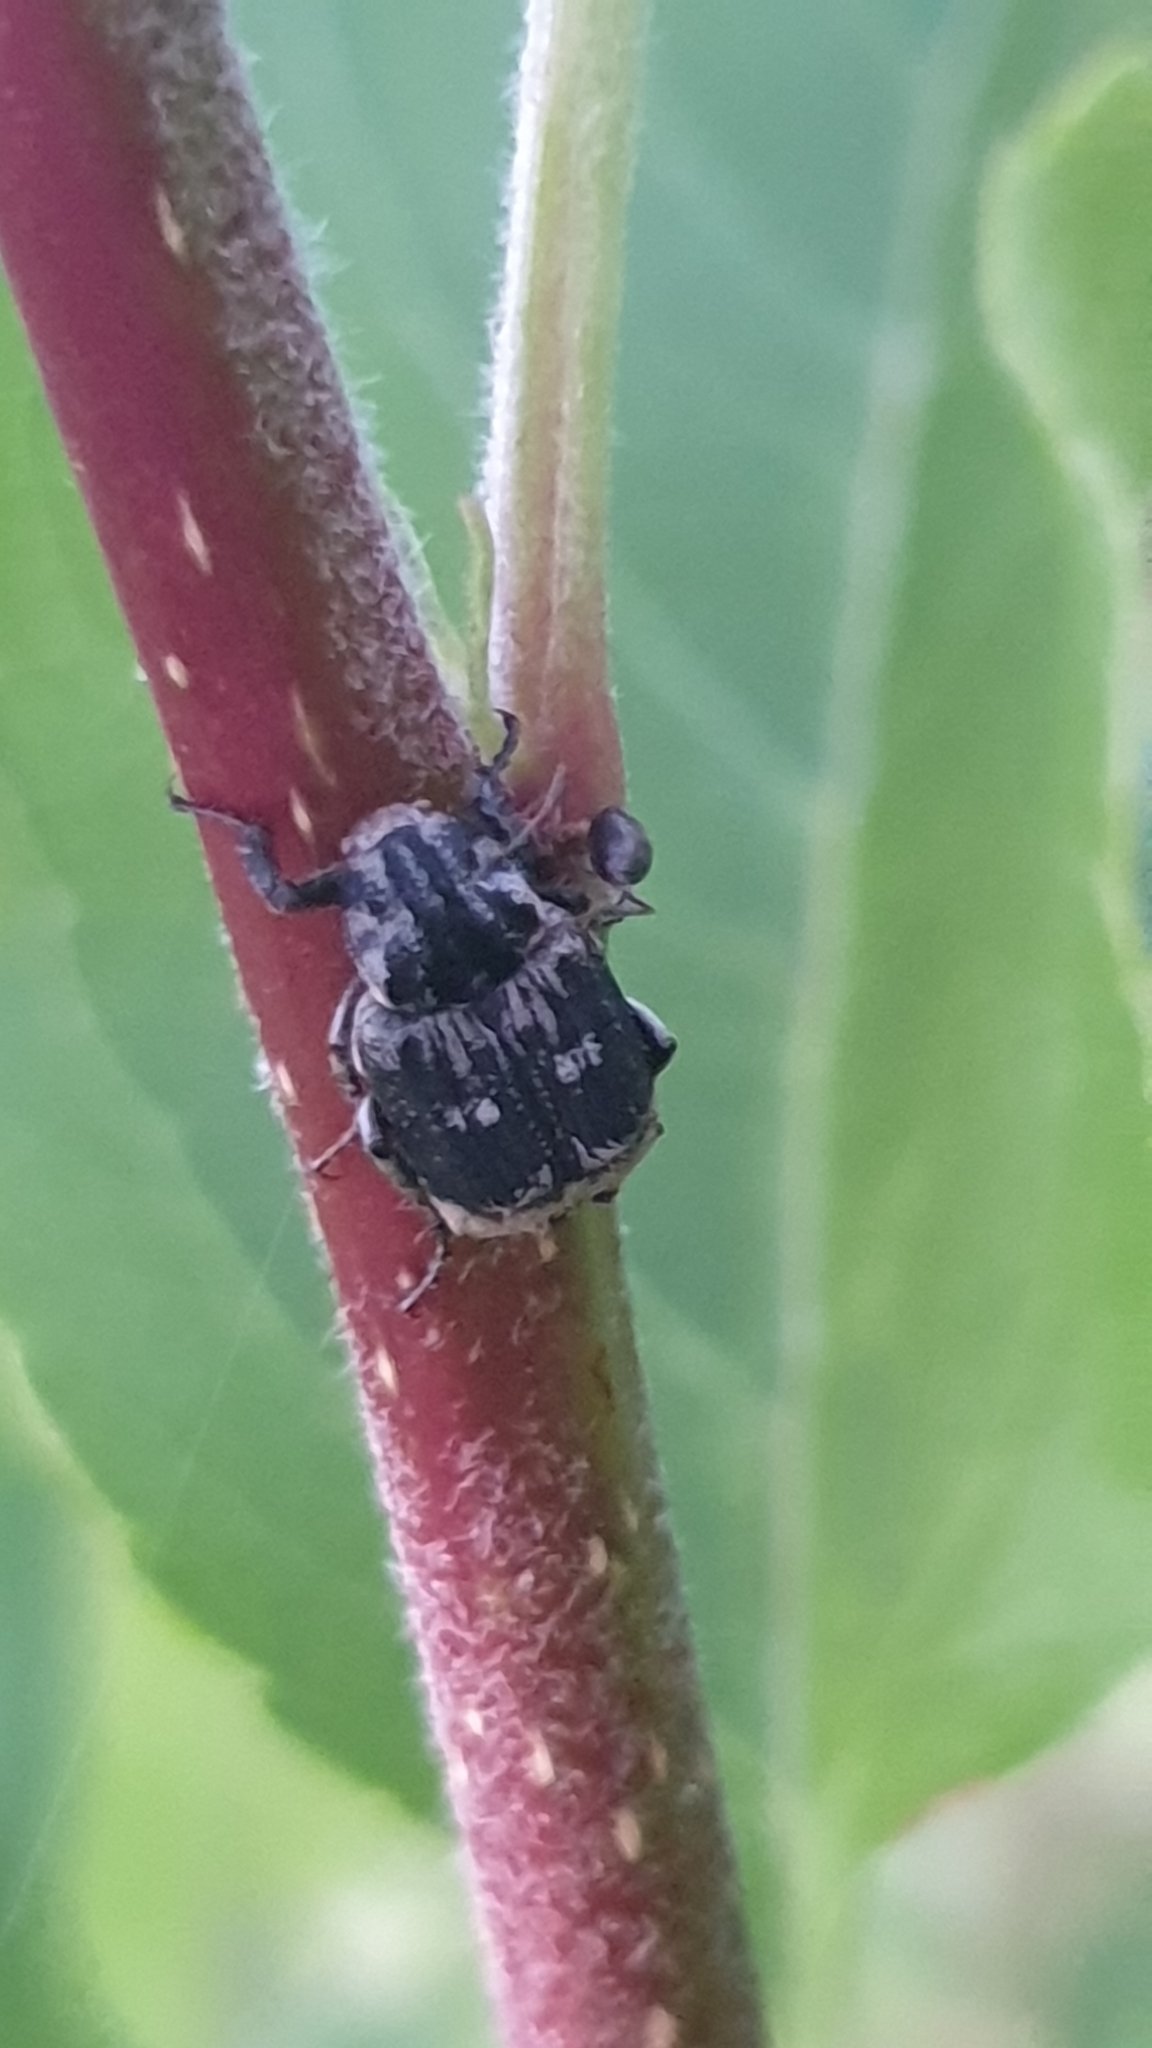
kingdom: Animalia
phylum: Arthropoda
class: Insecta
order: Coleoptera
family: Scarabaeidae
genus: Valgus
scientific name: Valgus hemipterus
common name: Bug flower chafer
